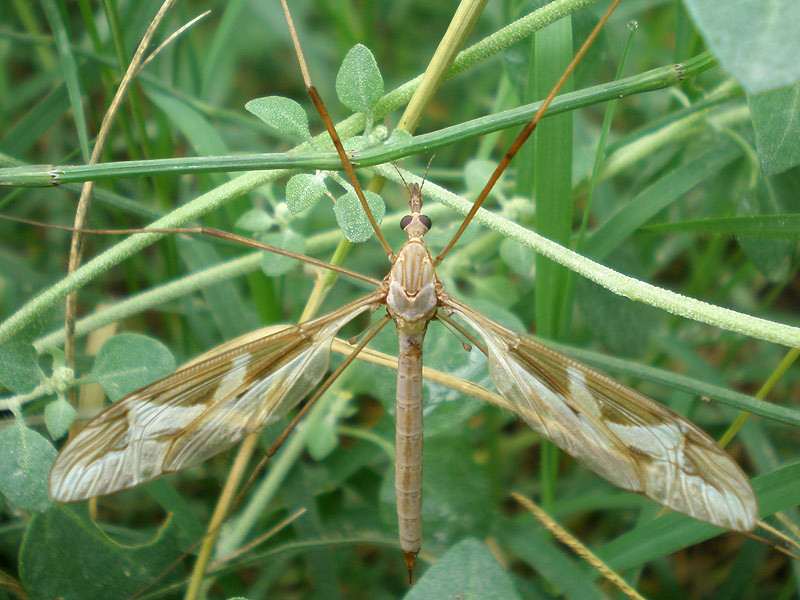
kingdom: Animalia
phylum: Arthropoda
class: Insecta
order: Diptera
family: Tipulidae
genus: Tipula
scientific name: Tipula repanda
